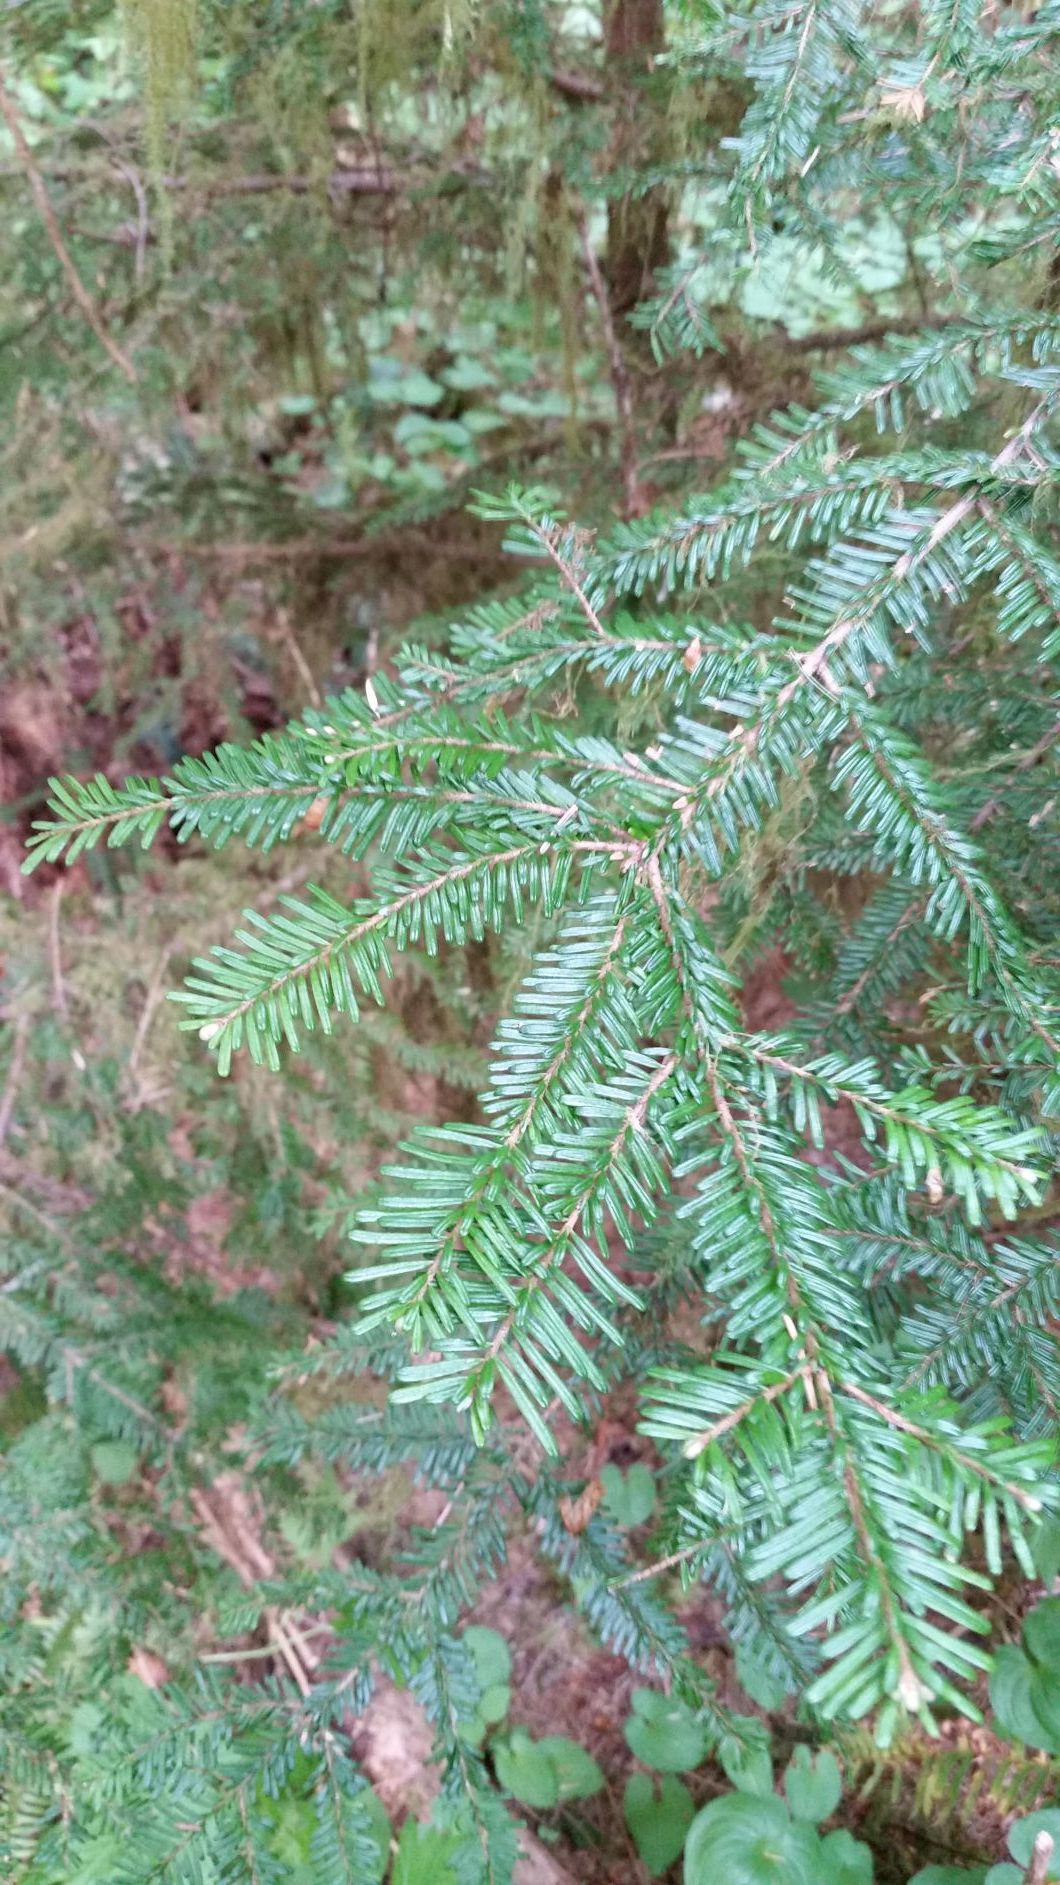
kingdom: Plantae
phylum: Tracheophyta
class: Pinopsida
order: Pinales
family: Pinaceae
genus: Abies
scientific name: Abies amabilis
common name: Pacific silver fir
